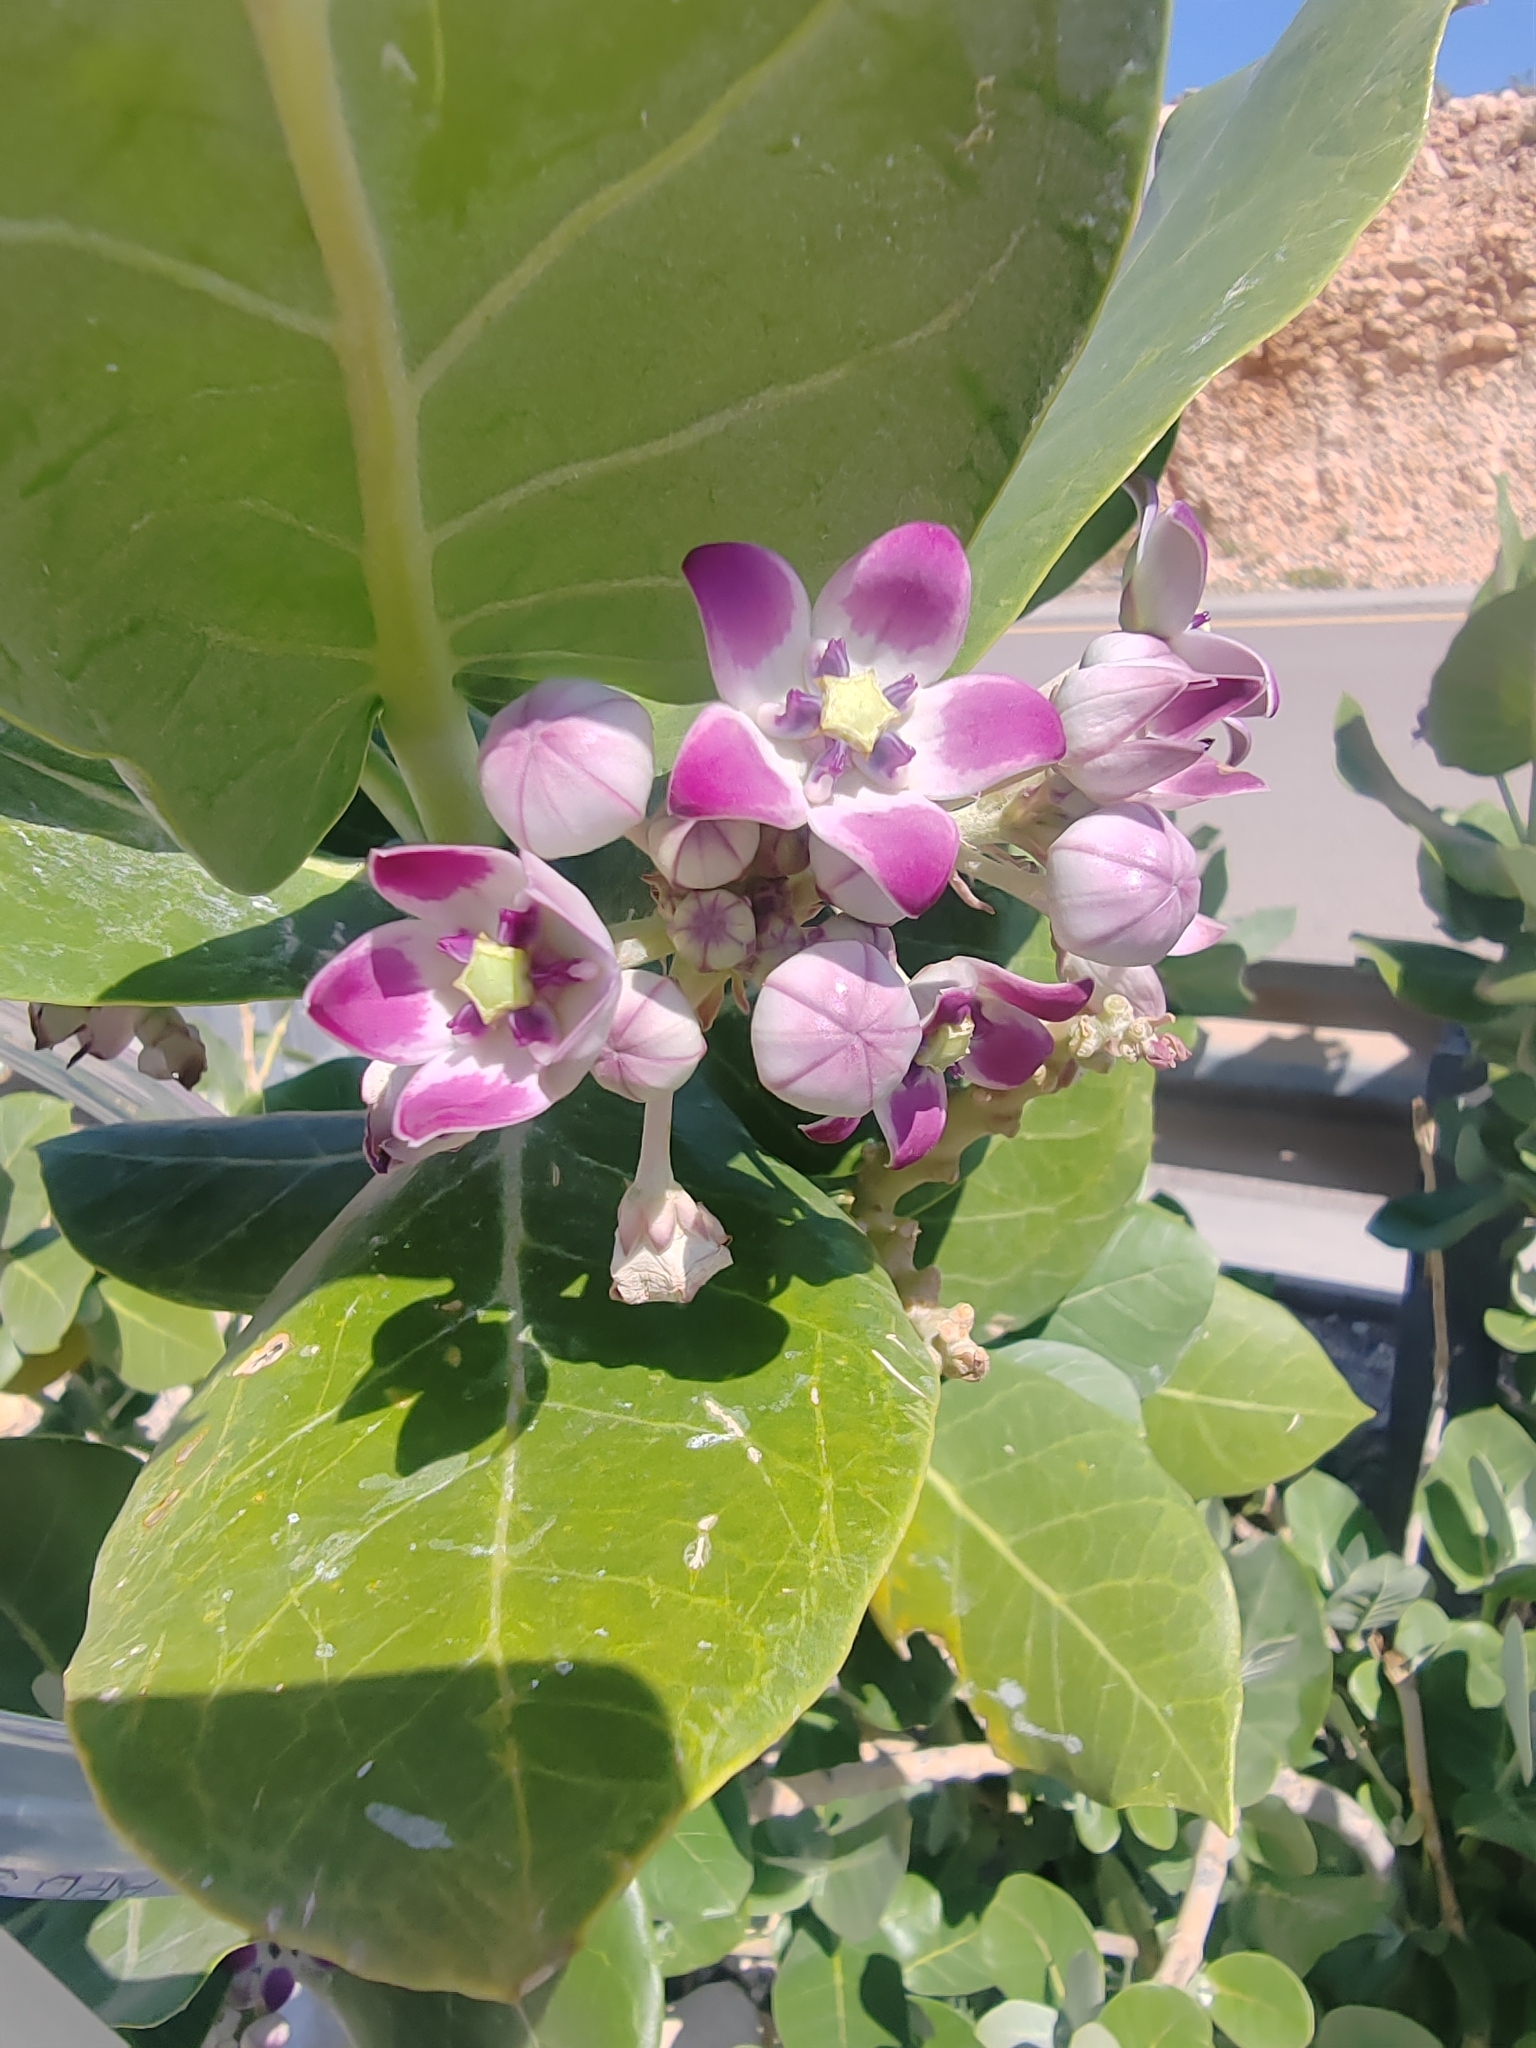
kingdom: Plantae
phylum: Tracheophyta
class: Magnoliopsida
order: Gentianales
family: Apocynaceae
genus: Calotropis
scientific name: Calotropis procera
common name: Roostertree
